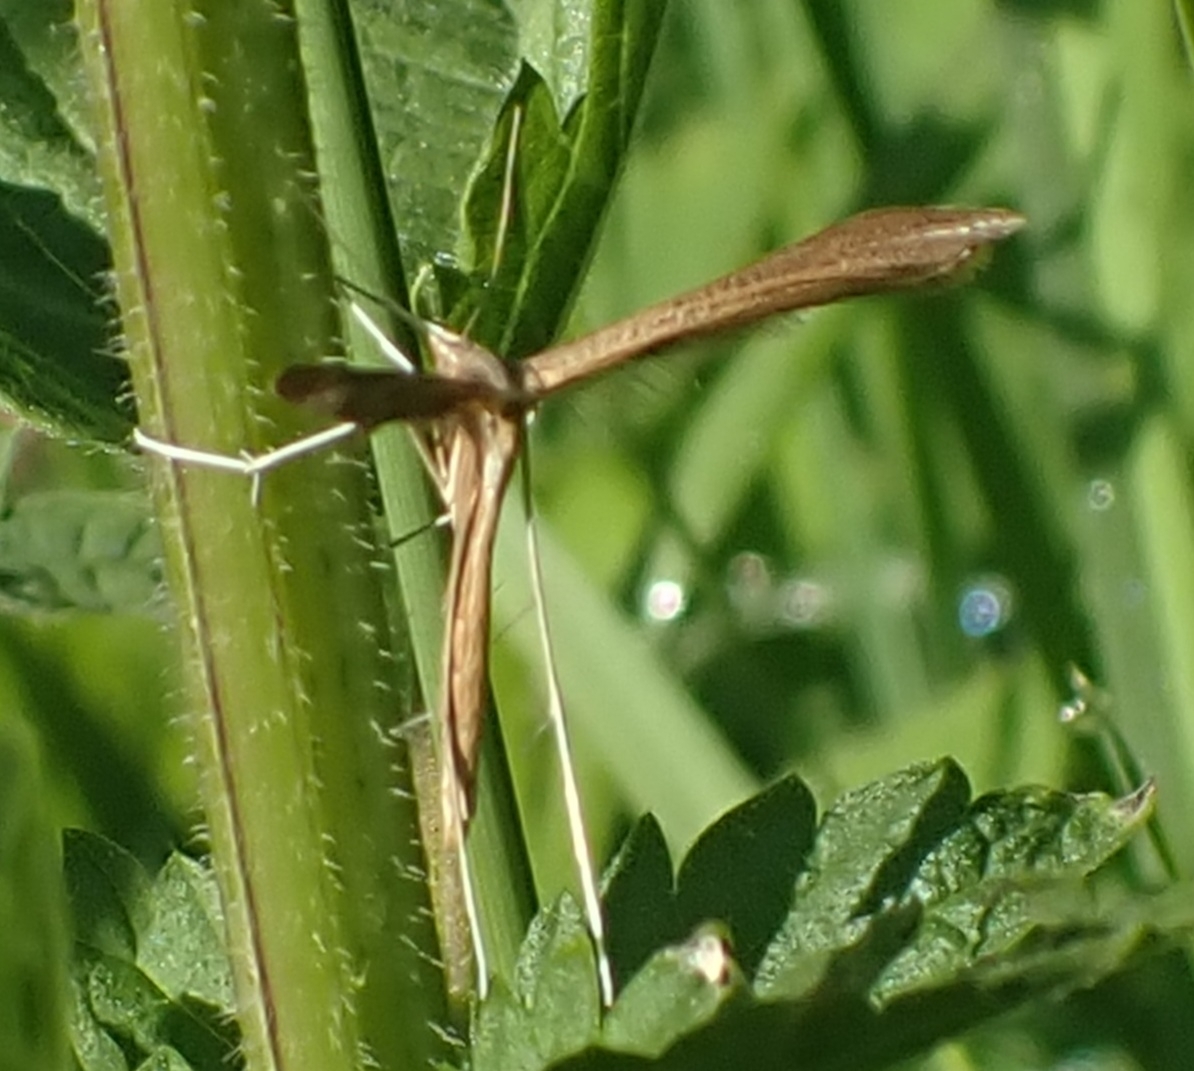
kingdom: Animalia
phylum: Arthropoda
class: Insecta
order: Lepidoptera
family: Pterophoridae
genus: Emmelina
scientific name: Emmelina monodactyla
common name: Common plume
